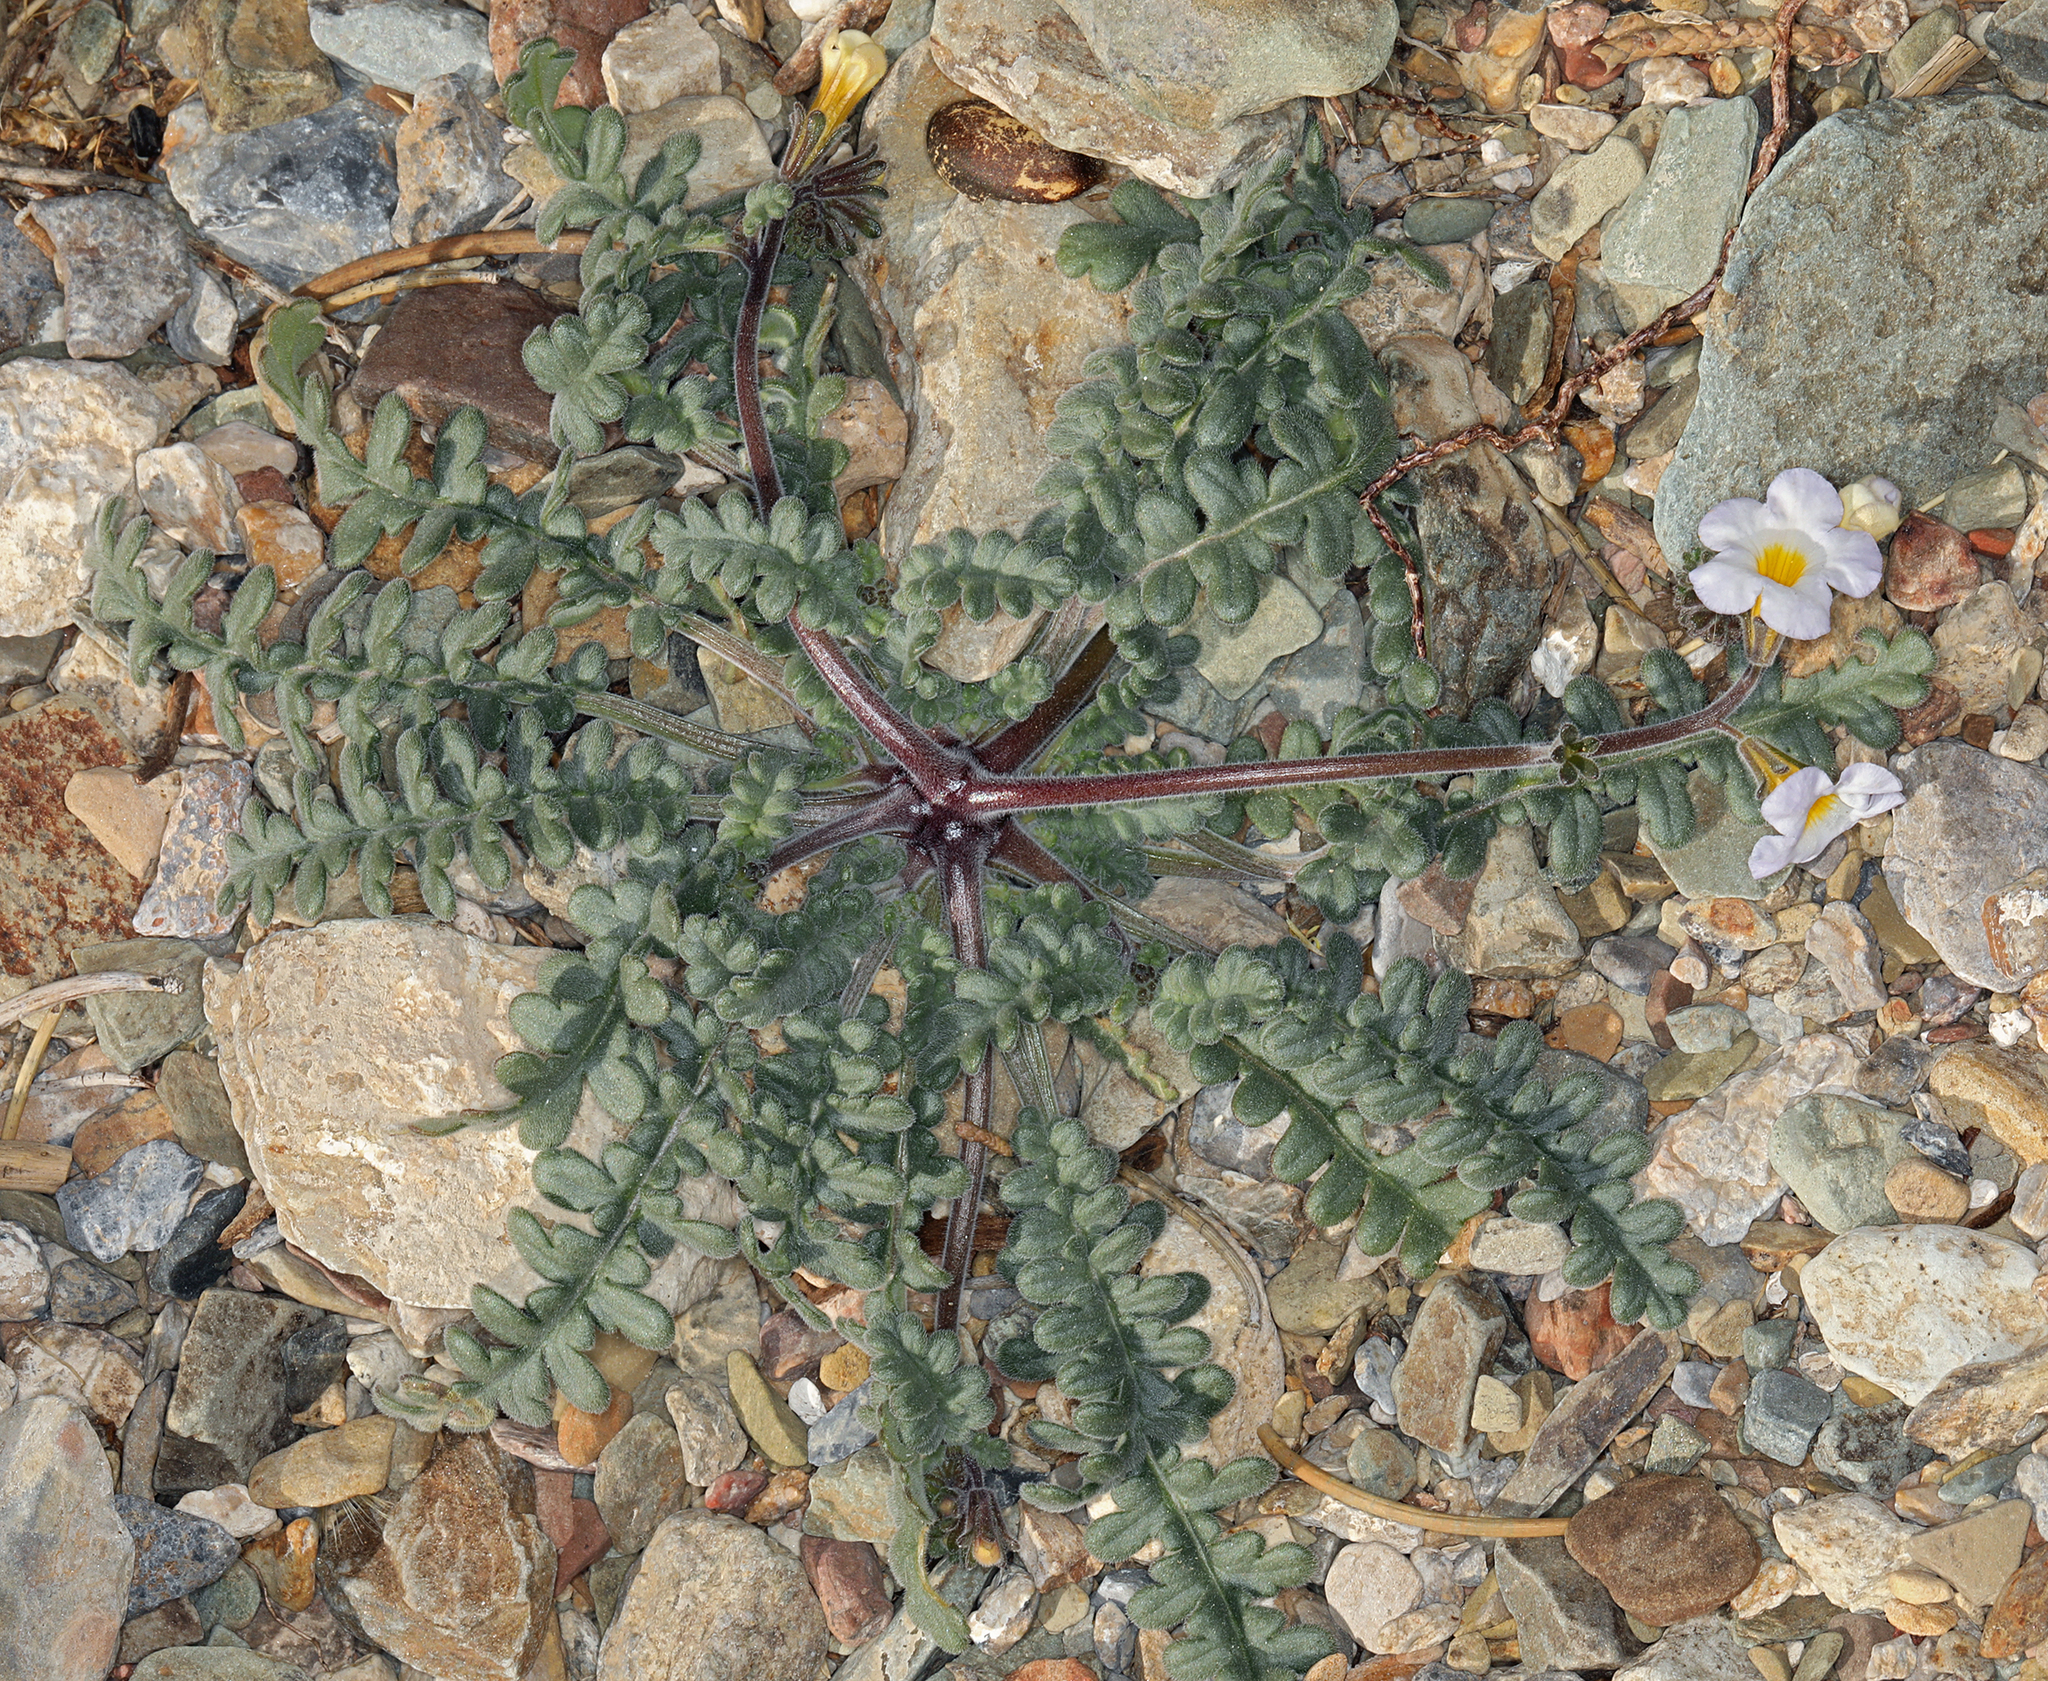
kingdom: Plantae
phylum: Tracheophyta
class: Magnoliopsida
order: Boraginales
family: Hydrophyllaceae
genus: Phacelia
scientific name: Phacelia fremontii
